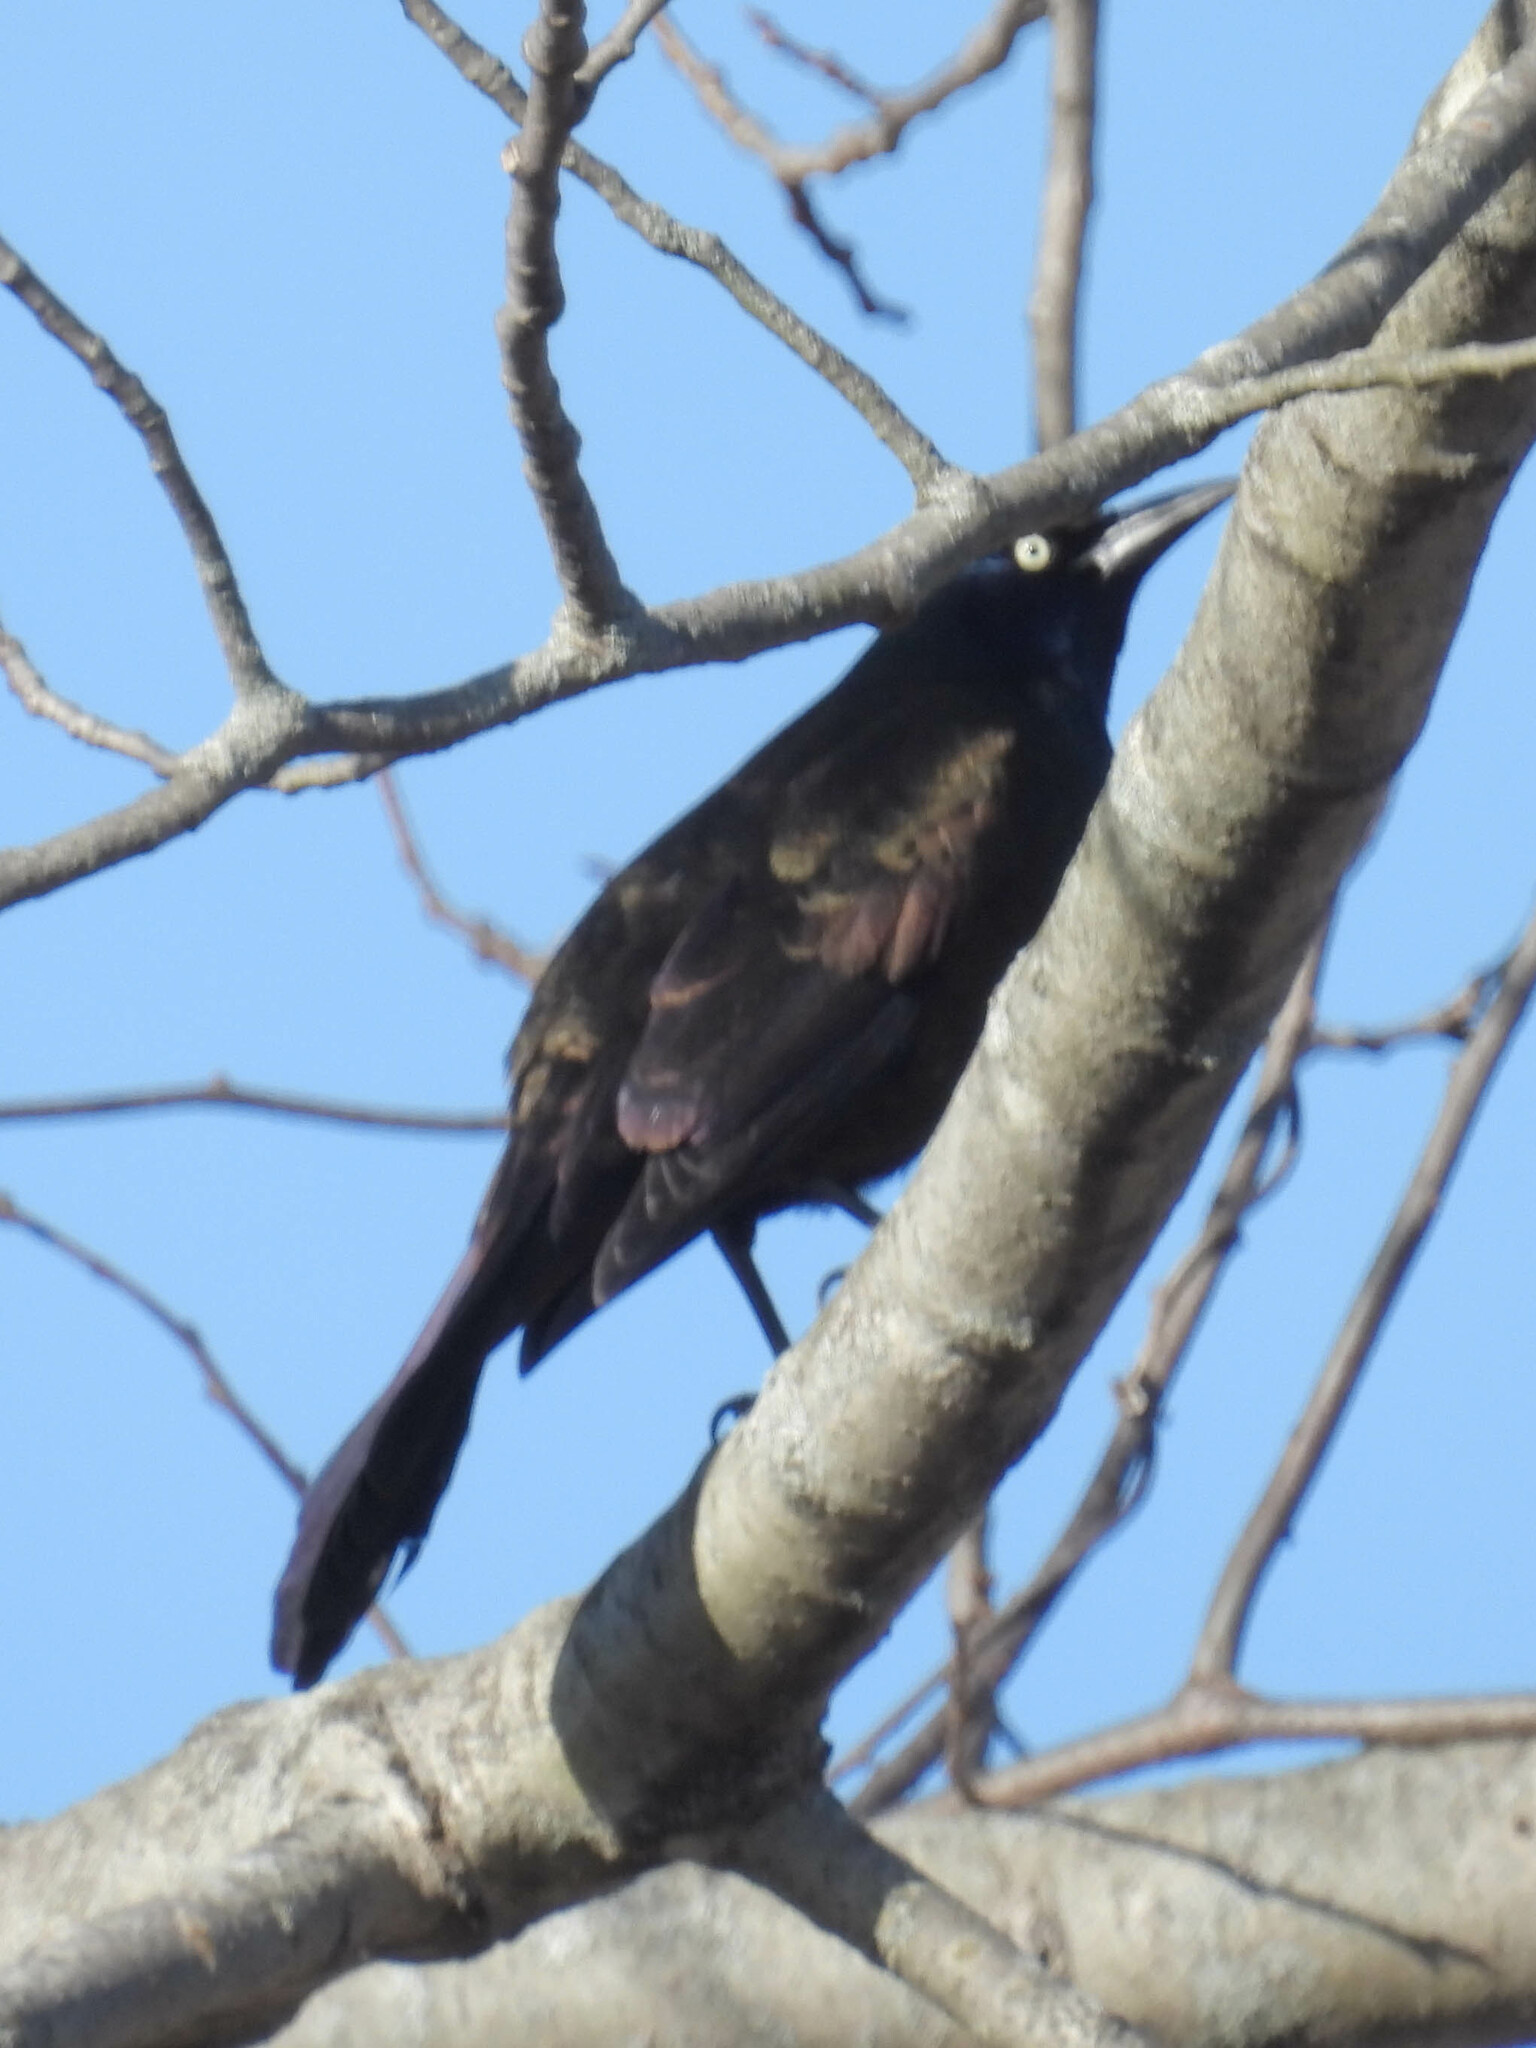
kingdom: Animalia
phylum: Chordata
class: Aves
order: Passeriformes
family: Icteridae
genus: Quiscalus
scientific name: Quiscalus quiscula
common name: Common grackle
